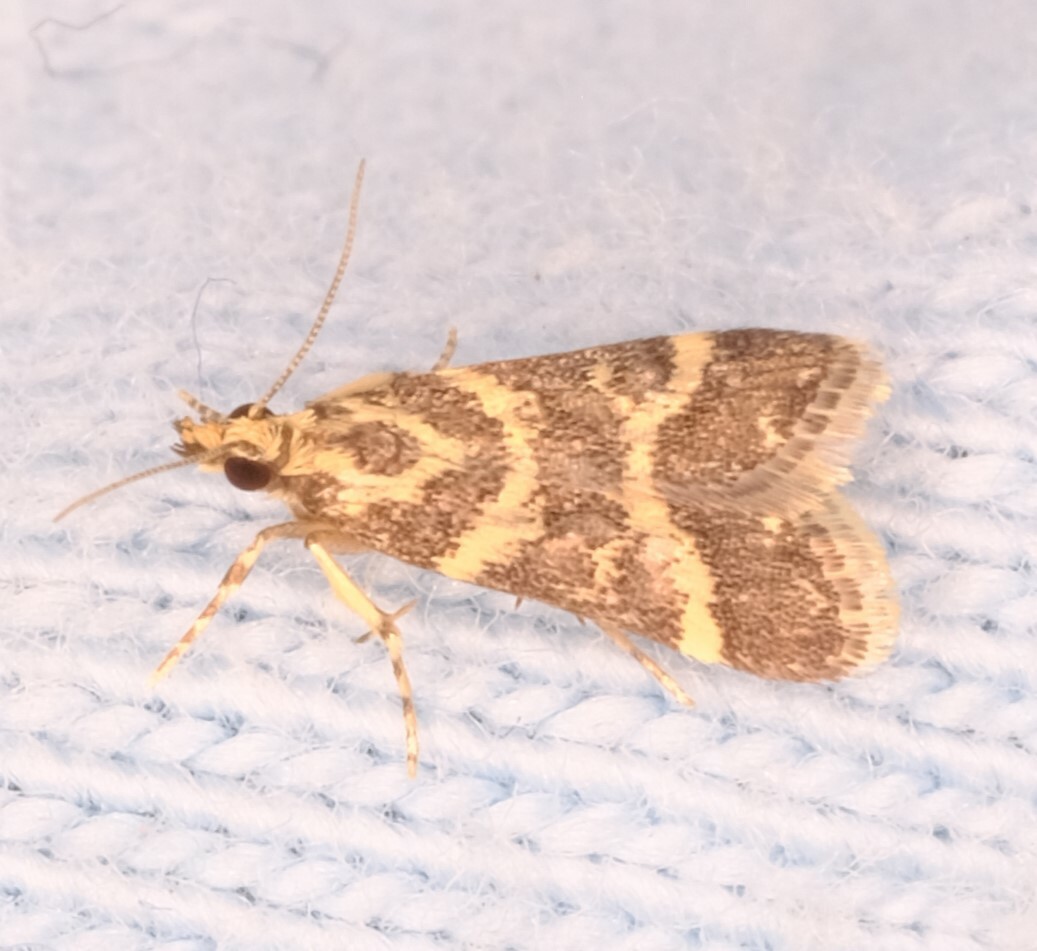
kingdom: Animalia
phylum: Arthropoda
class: Insecta
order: Lepidoptera
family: Crambidae
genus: Scoparia
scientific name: Scoparia spelaea
